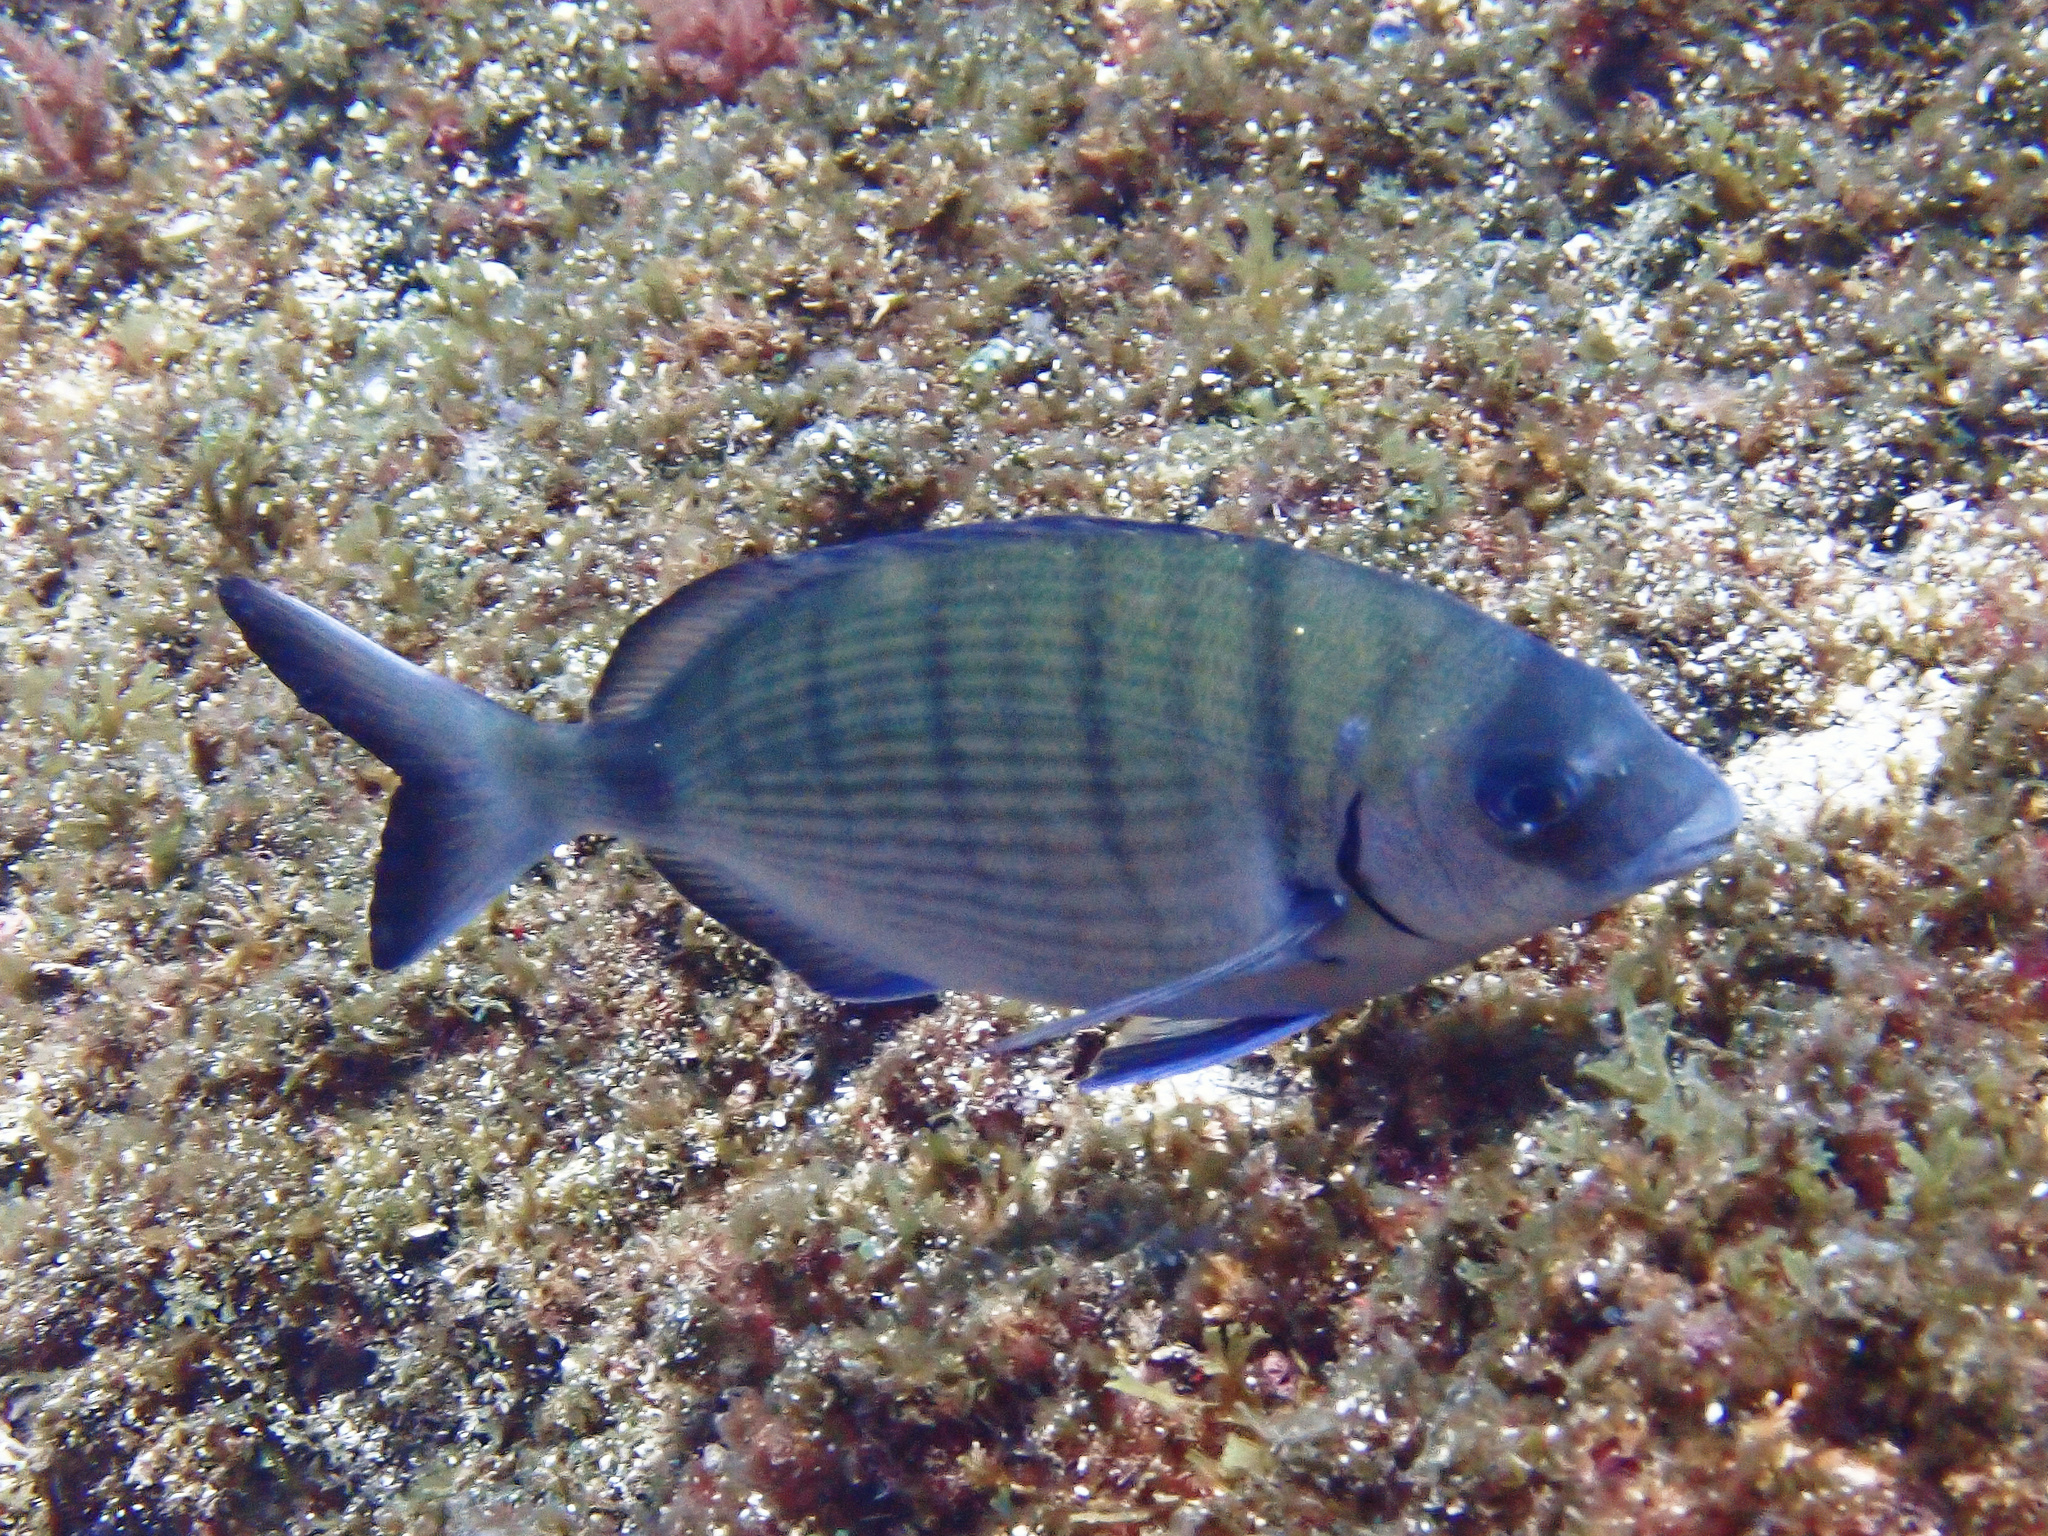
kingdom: Animalia
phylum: Chordata
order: Perciformes
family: Sparidae
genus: Diplodus
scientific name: Diplodus sargus
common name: White seabream
